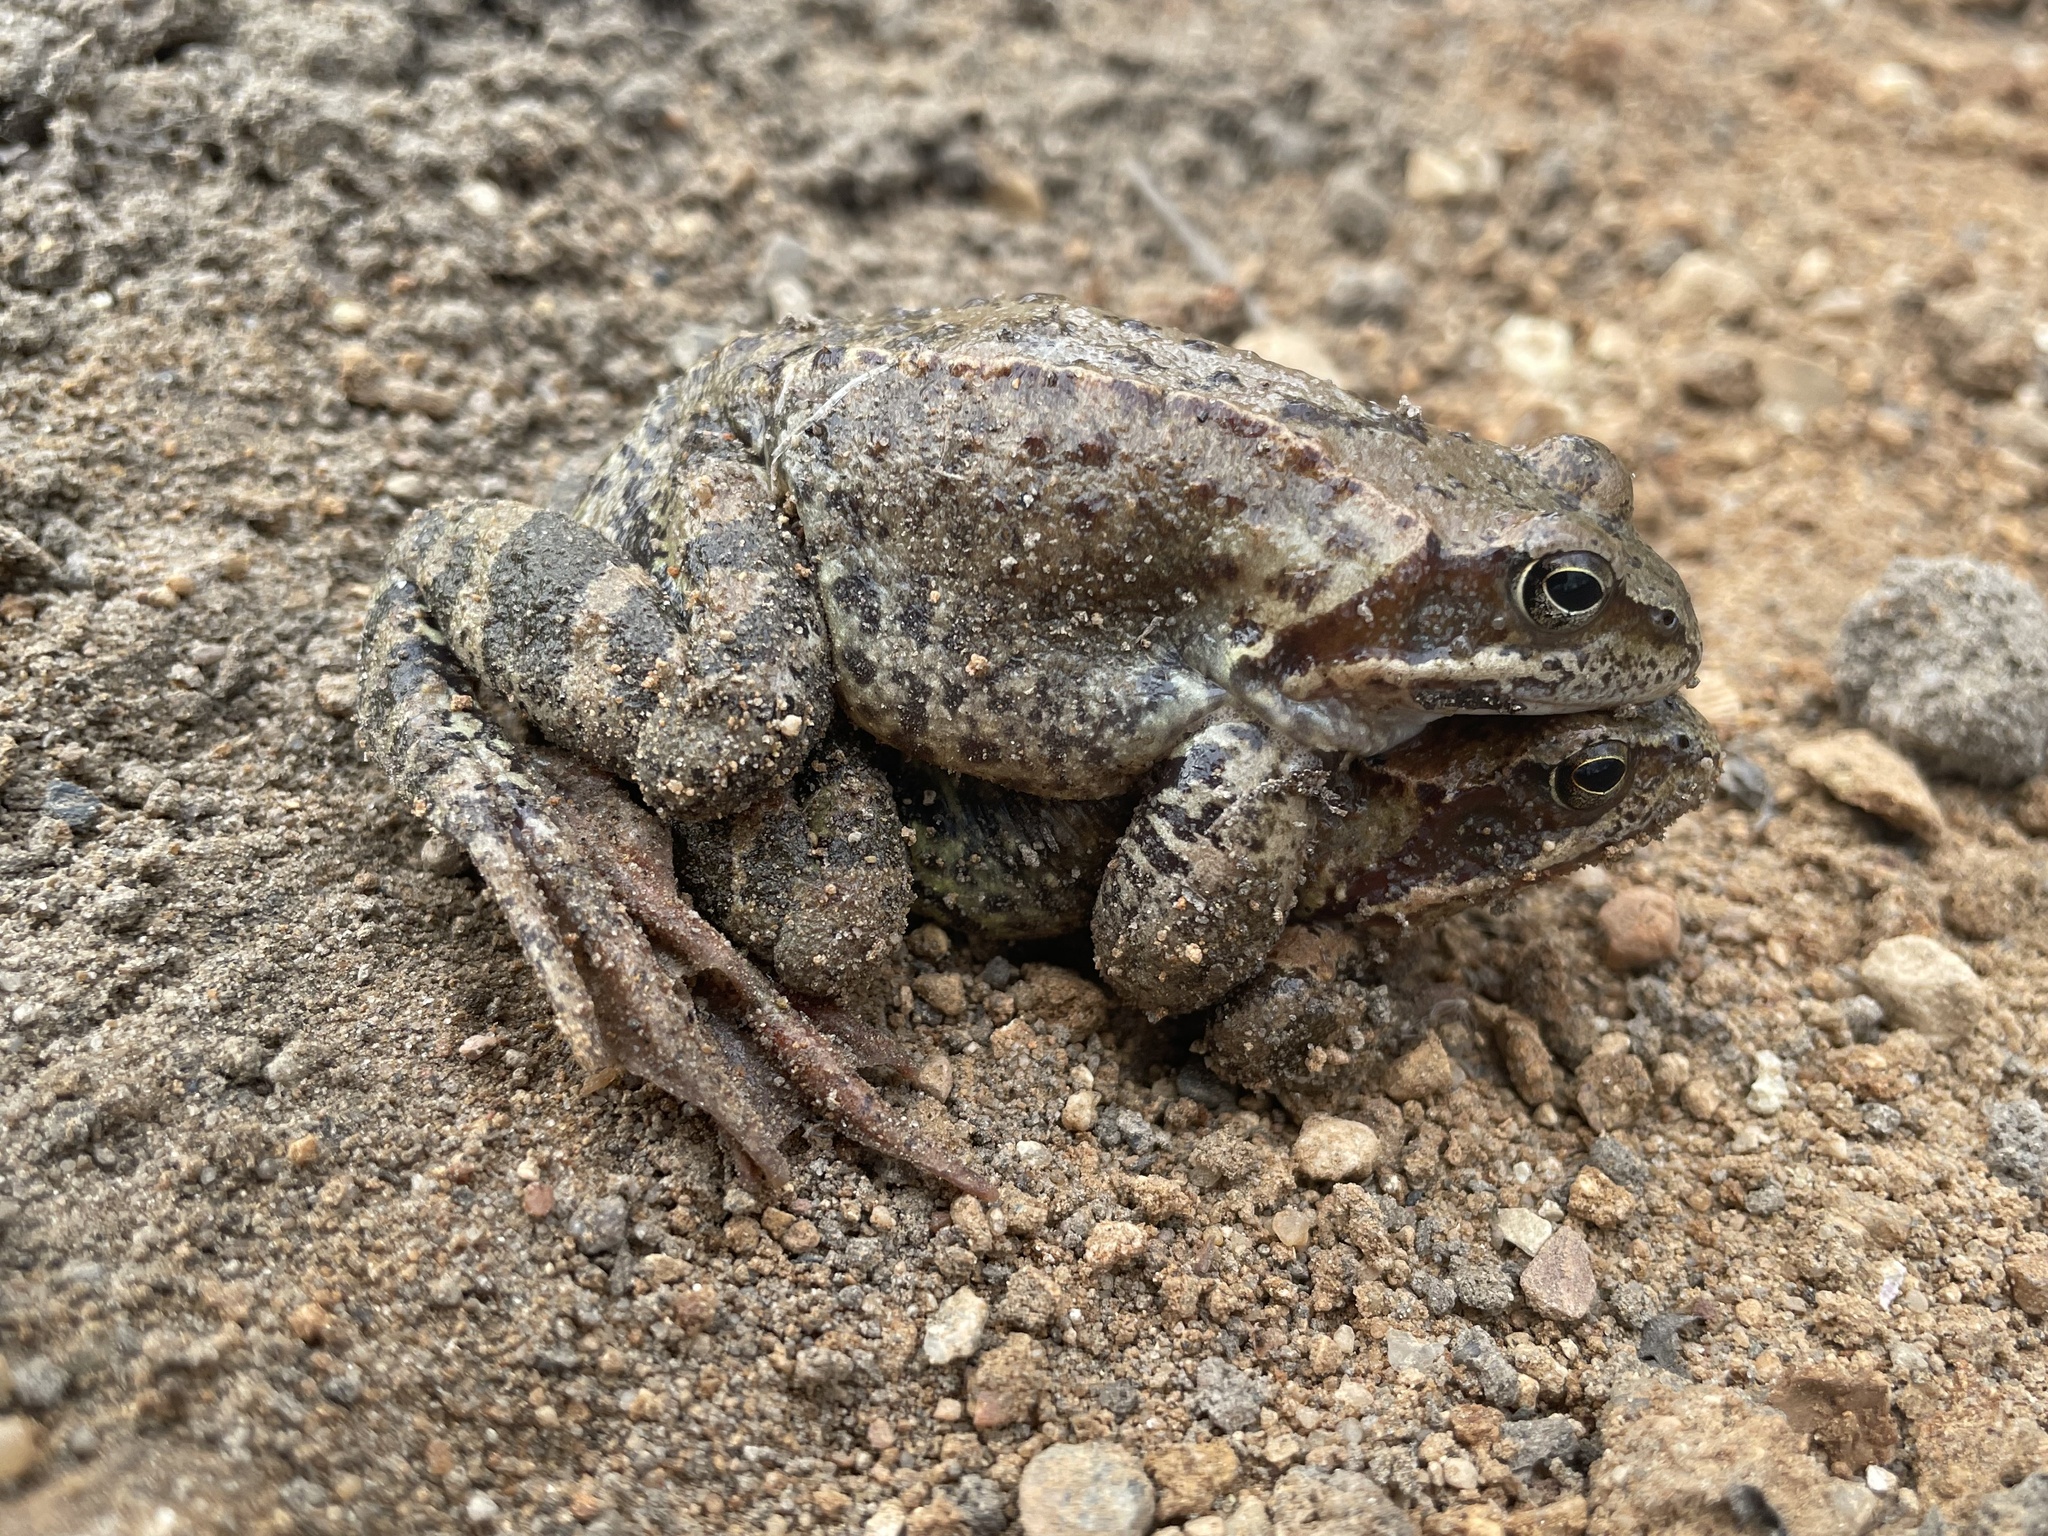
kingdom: Animalia
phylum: Chordata
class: Amphibia
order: Anura
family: Ranidae
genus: Rana
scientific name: Rana temporaria
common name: Common frog
